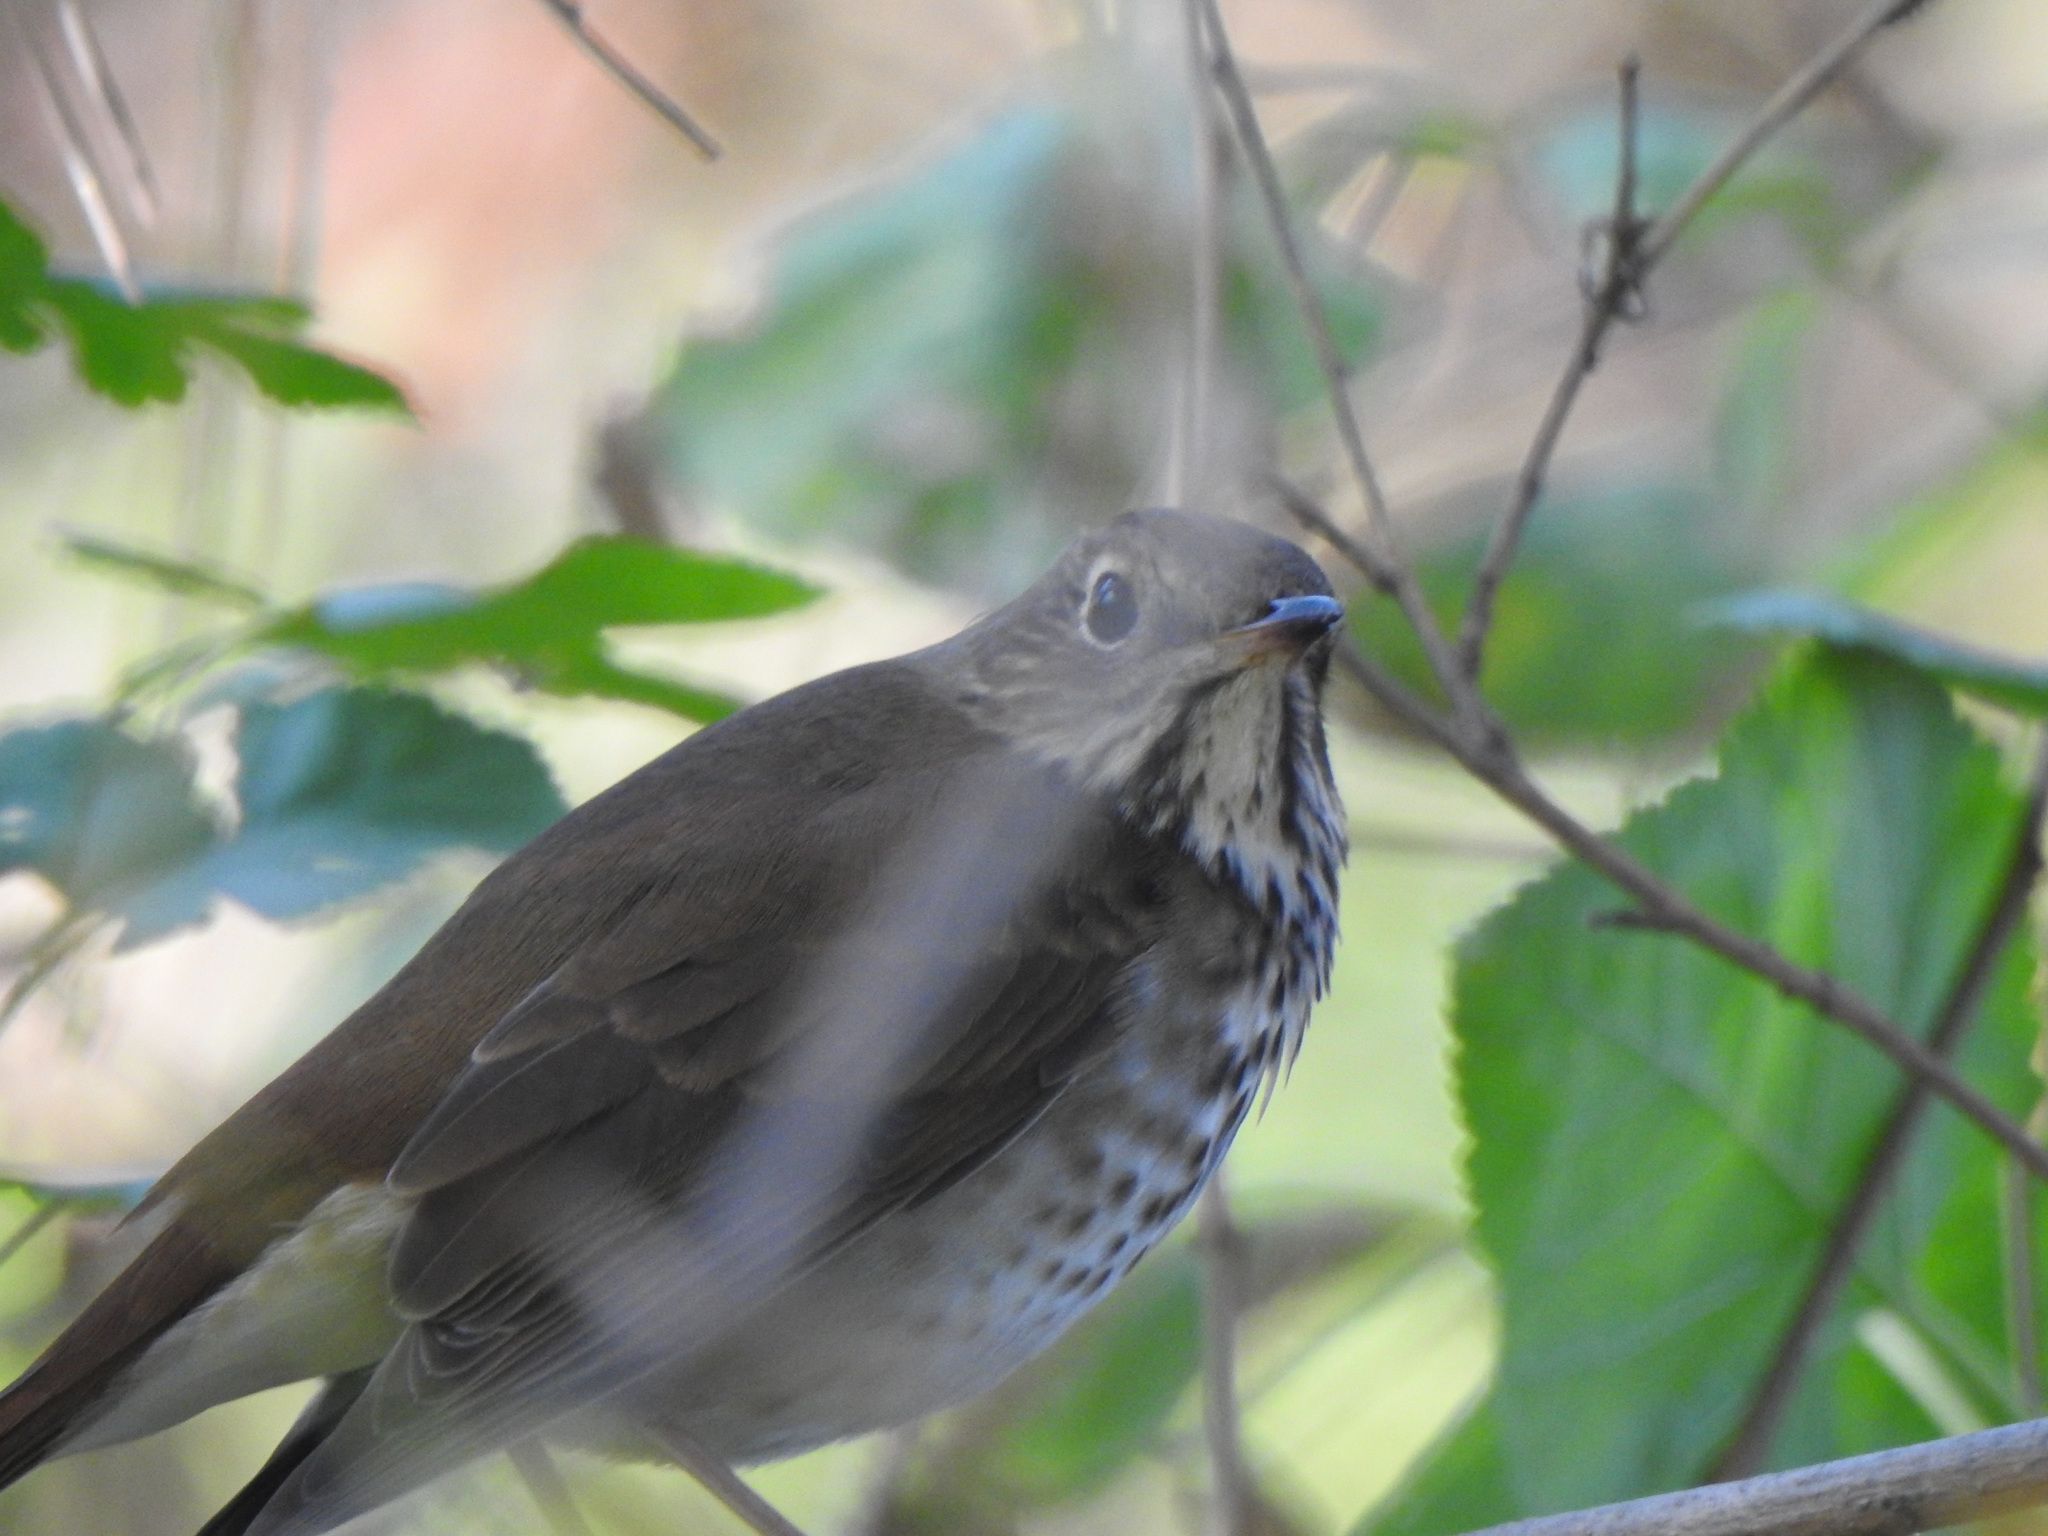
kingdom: Animalia
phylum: Chordata
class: Aves
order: Passeriformes
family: Turdidae
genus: Catharus
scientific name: Catharus guttatus
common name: Hermit thrush
